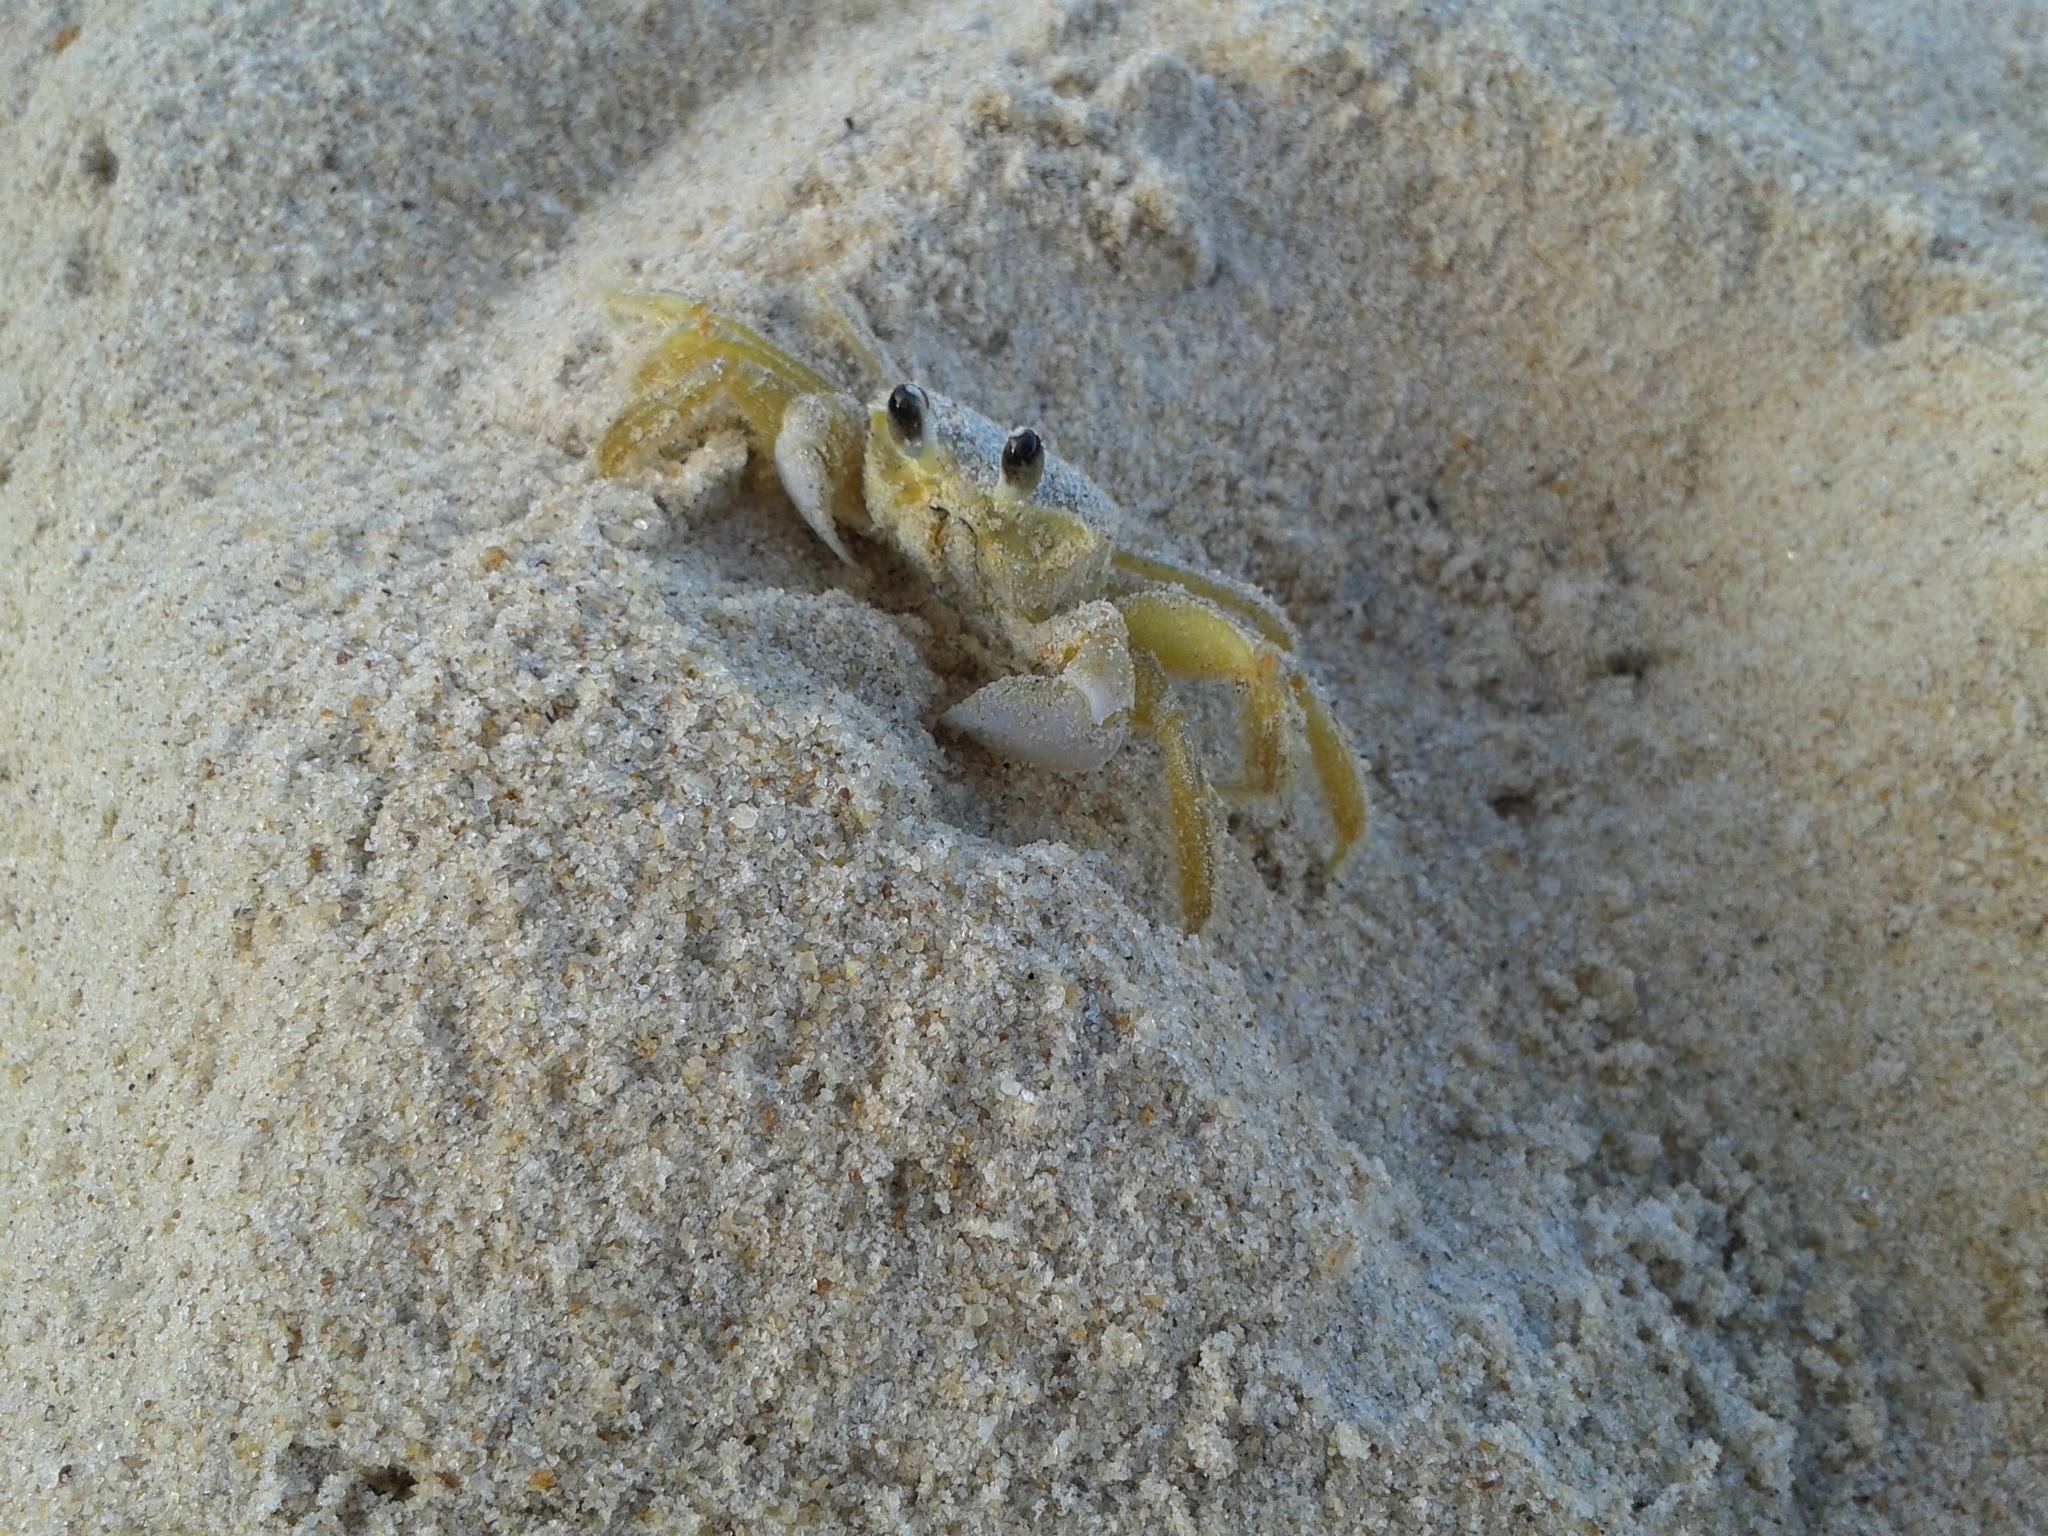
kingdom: Animalia
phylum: Arthropoda
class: Malacostraca
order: Decapoda
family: Ocypodidae
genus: Ocypode
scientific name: Ocypode quadrata
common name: Ghost crab
